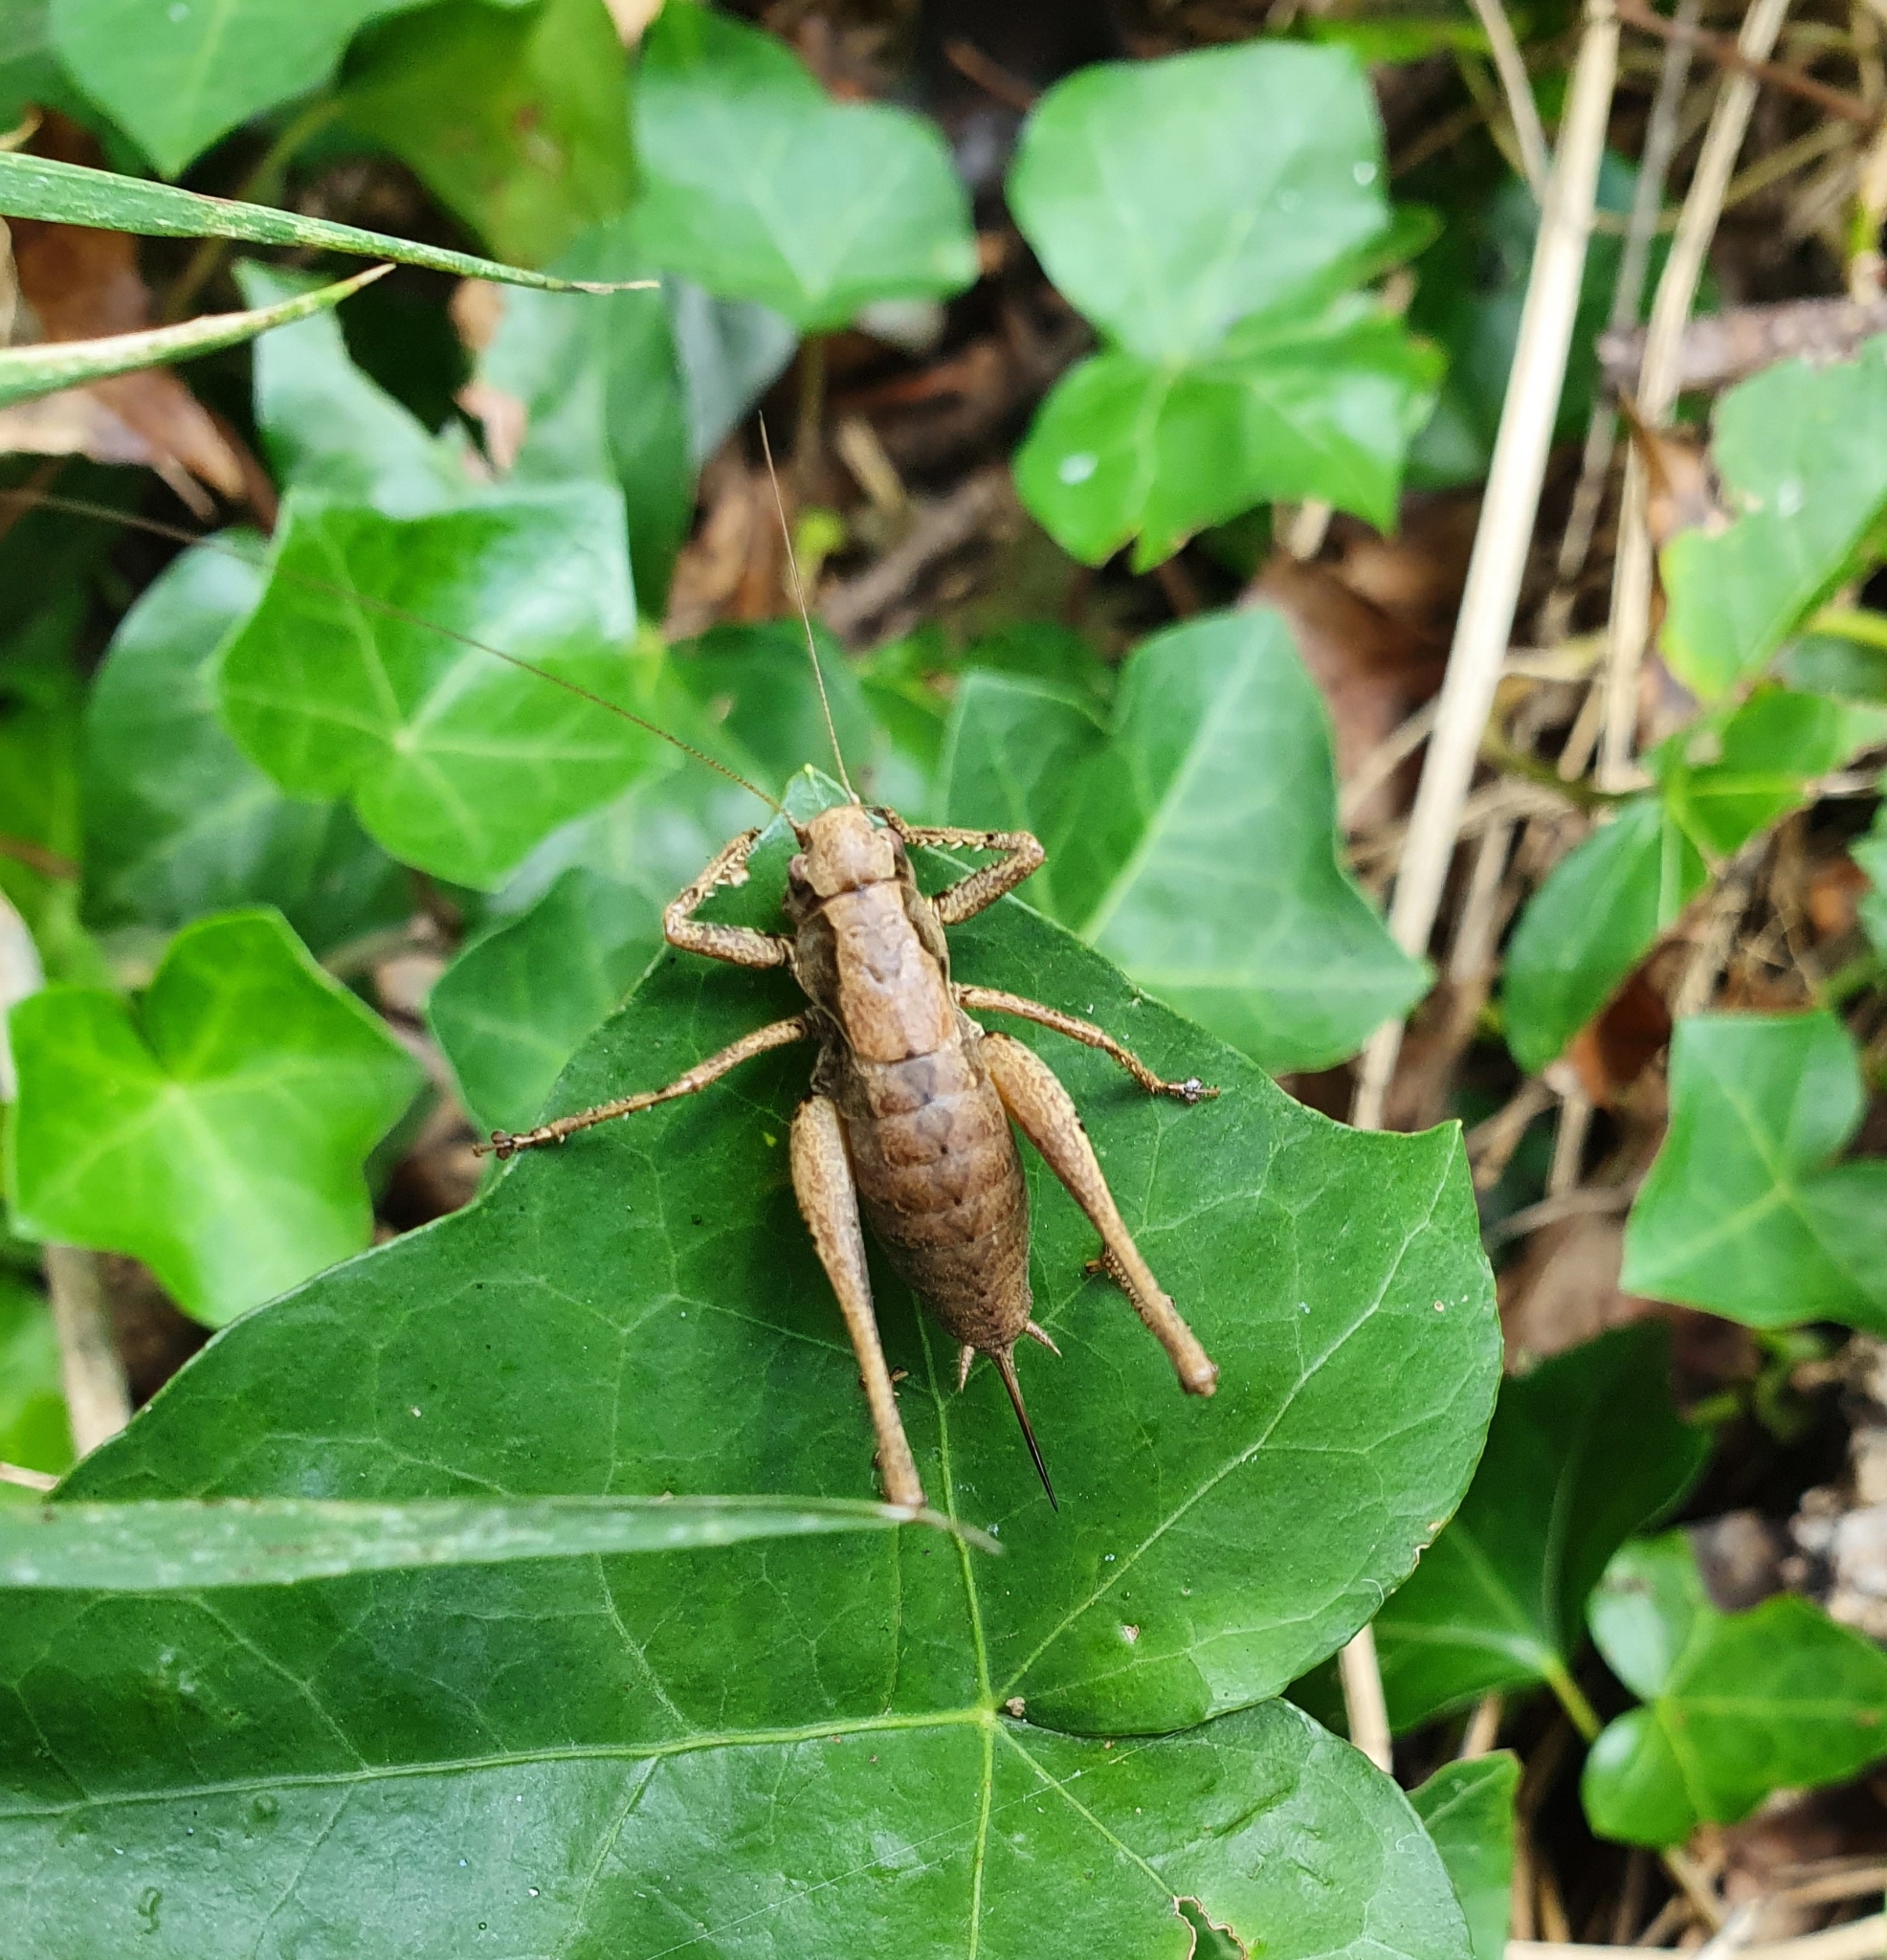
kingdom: Animalia
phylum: Arthropoda
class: Insecta
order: Orthoptera
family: Tettigoniidae
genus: Pholidoptera
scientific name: Pholidoptera griseoaptera
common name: Dark bush-cricket
